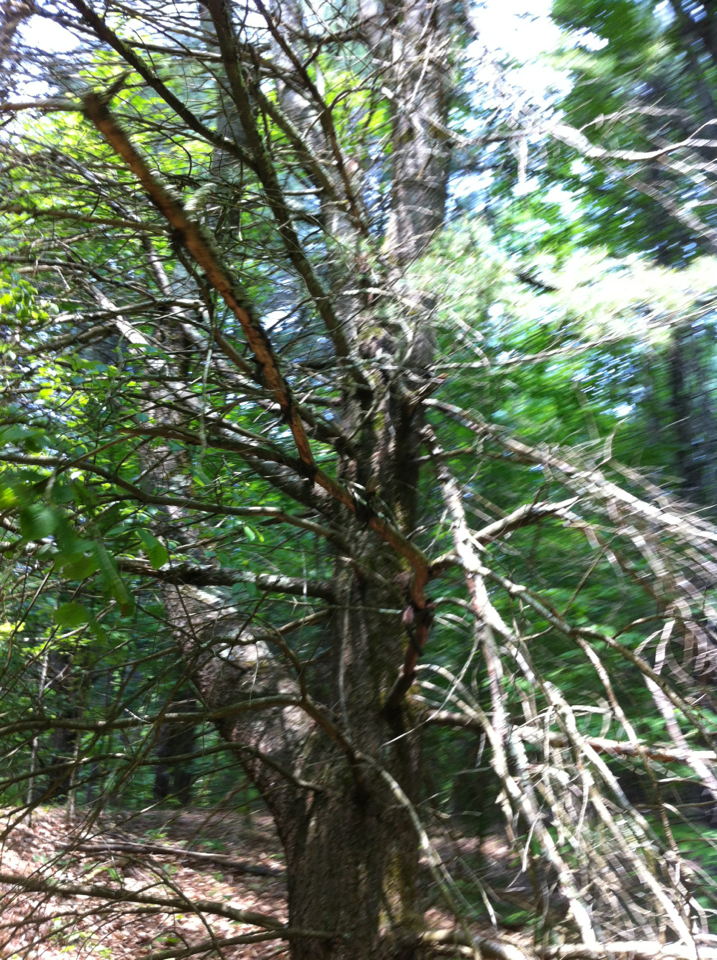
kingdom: Plantae
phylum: Tracheophyta
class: Pinopsida
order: Pinales
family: Pinaceae
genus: Pinus
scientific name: Pinus strobus
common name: Weymouth pine
